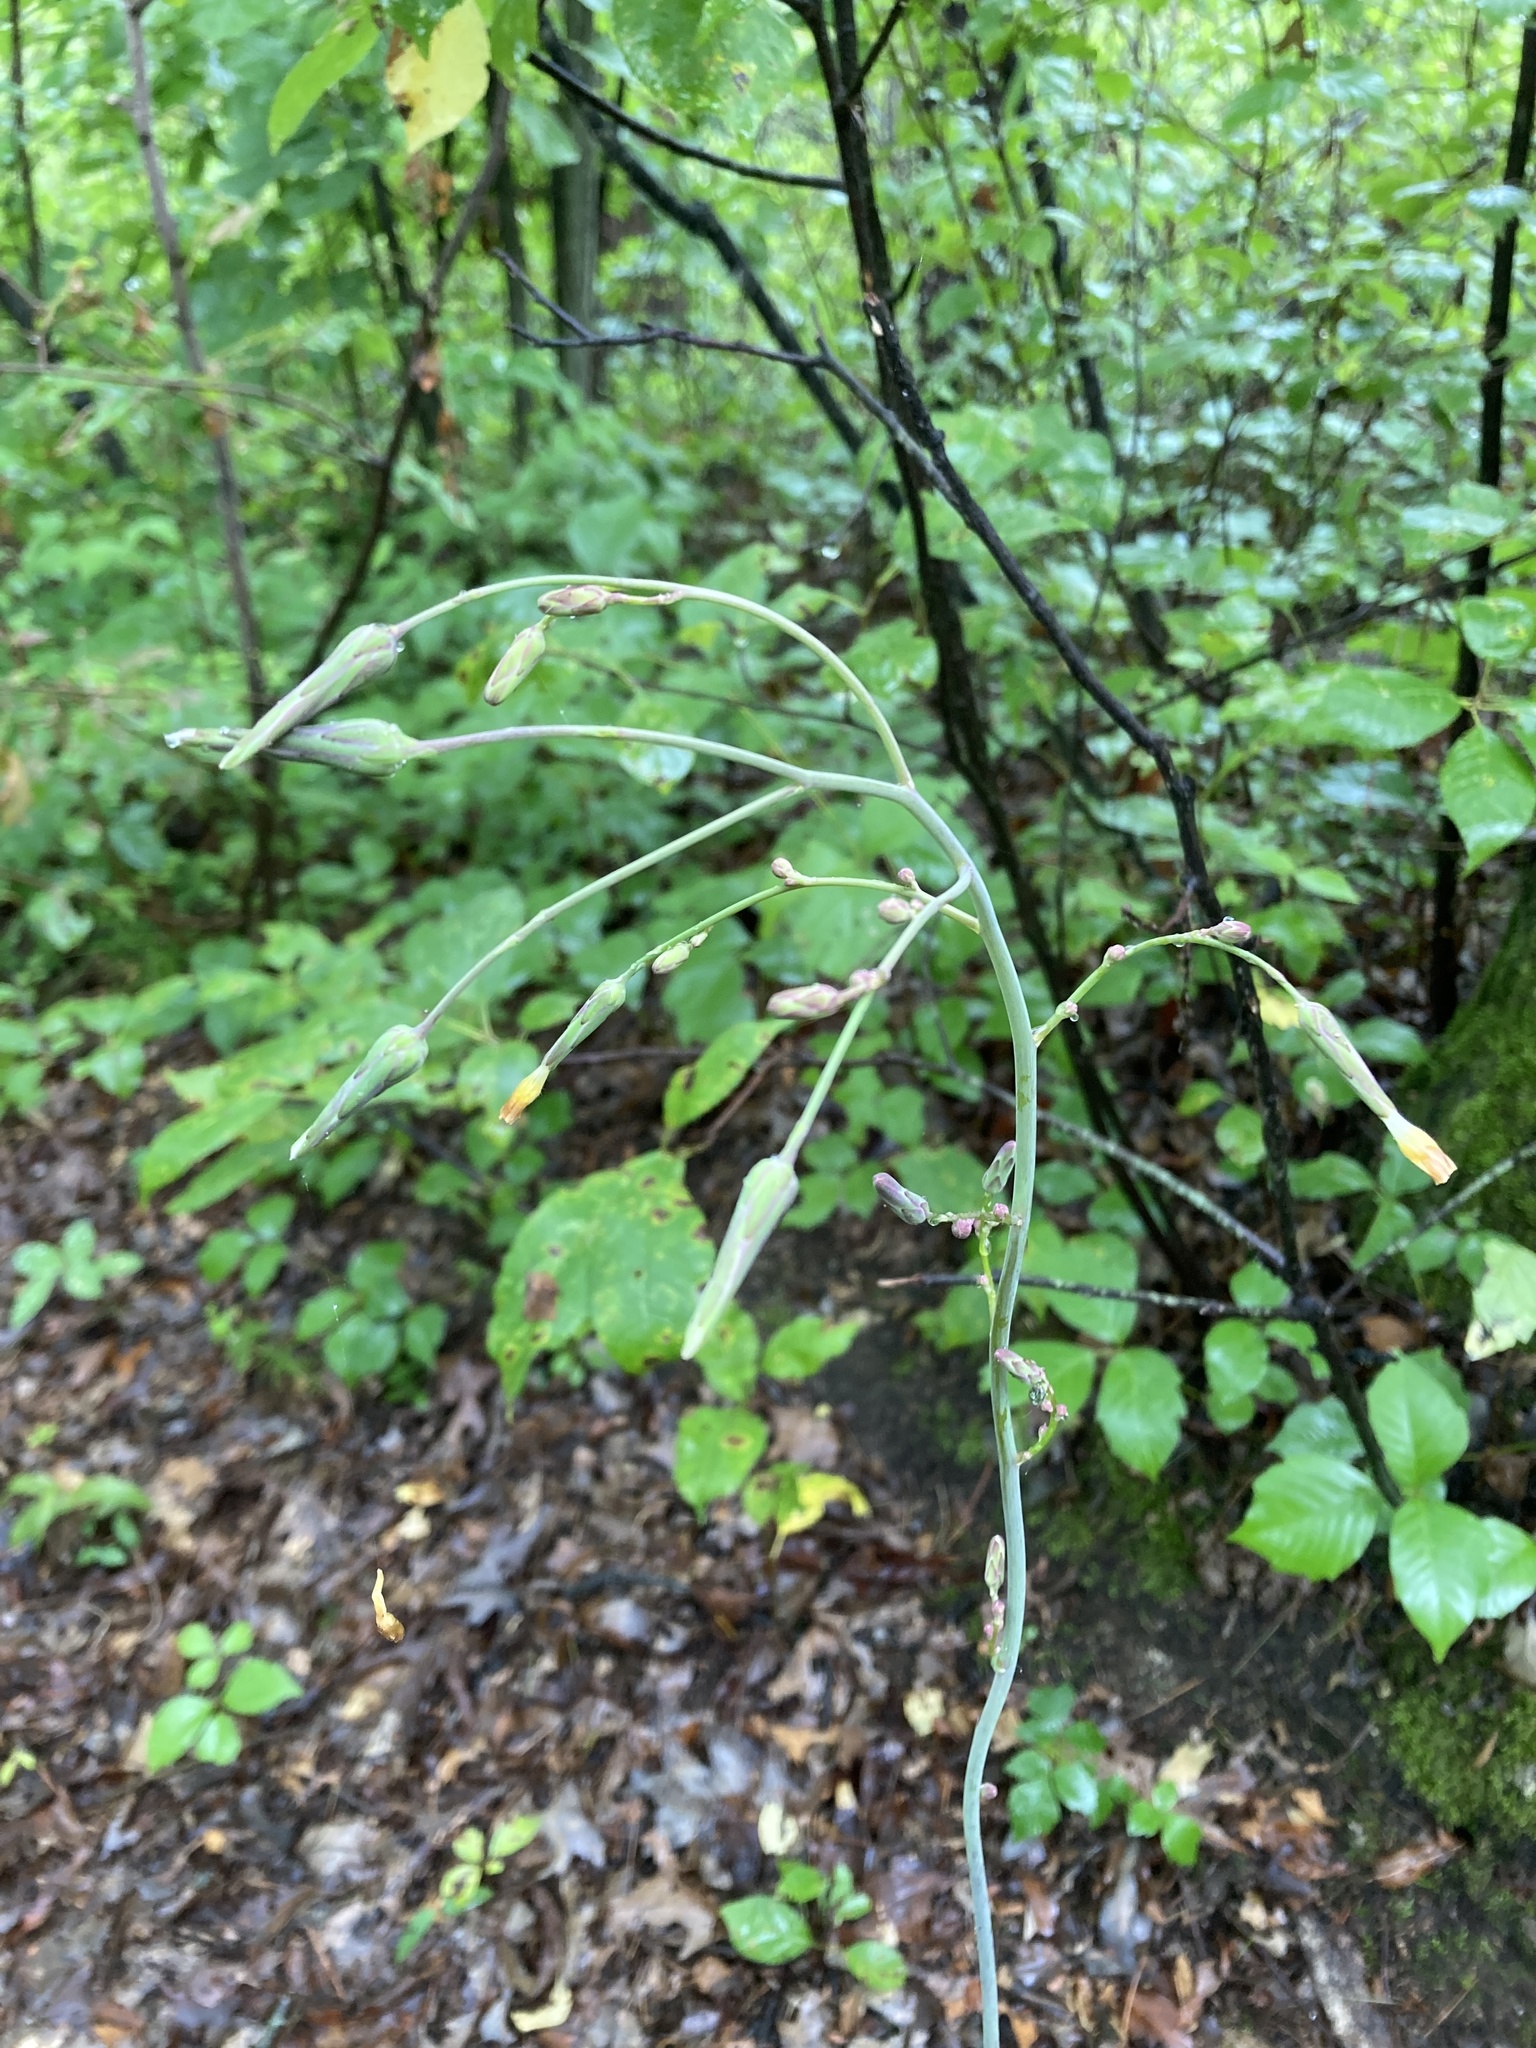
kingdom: Plantae
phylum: Tracheophyta
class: Magnoliopsida
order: Asterales
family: Asteraceae
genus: Lactuca
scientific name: Lactuca hirsuta
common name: Hairy lettuce
